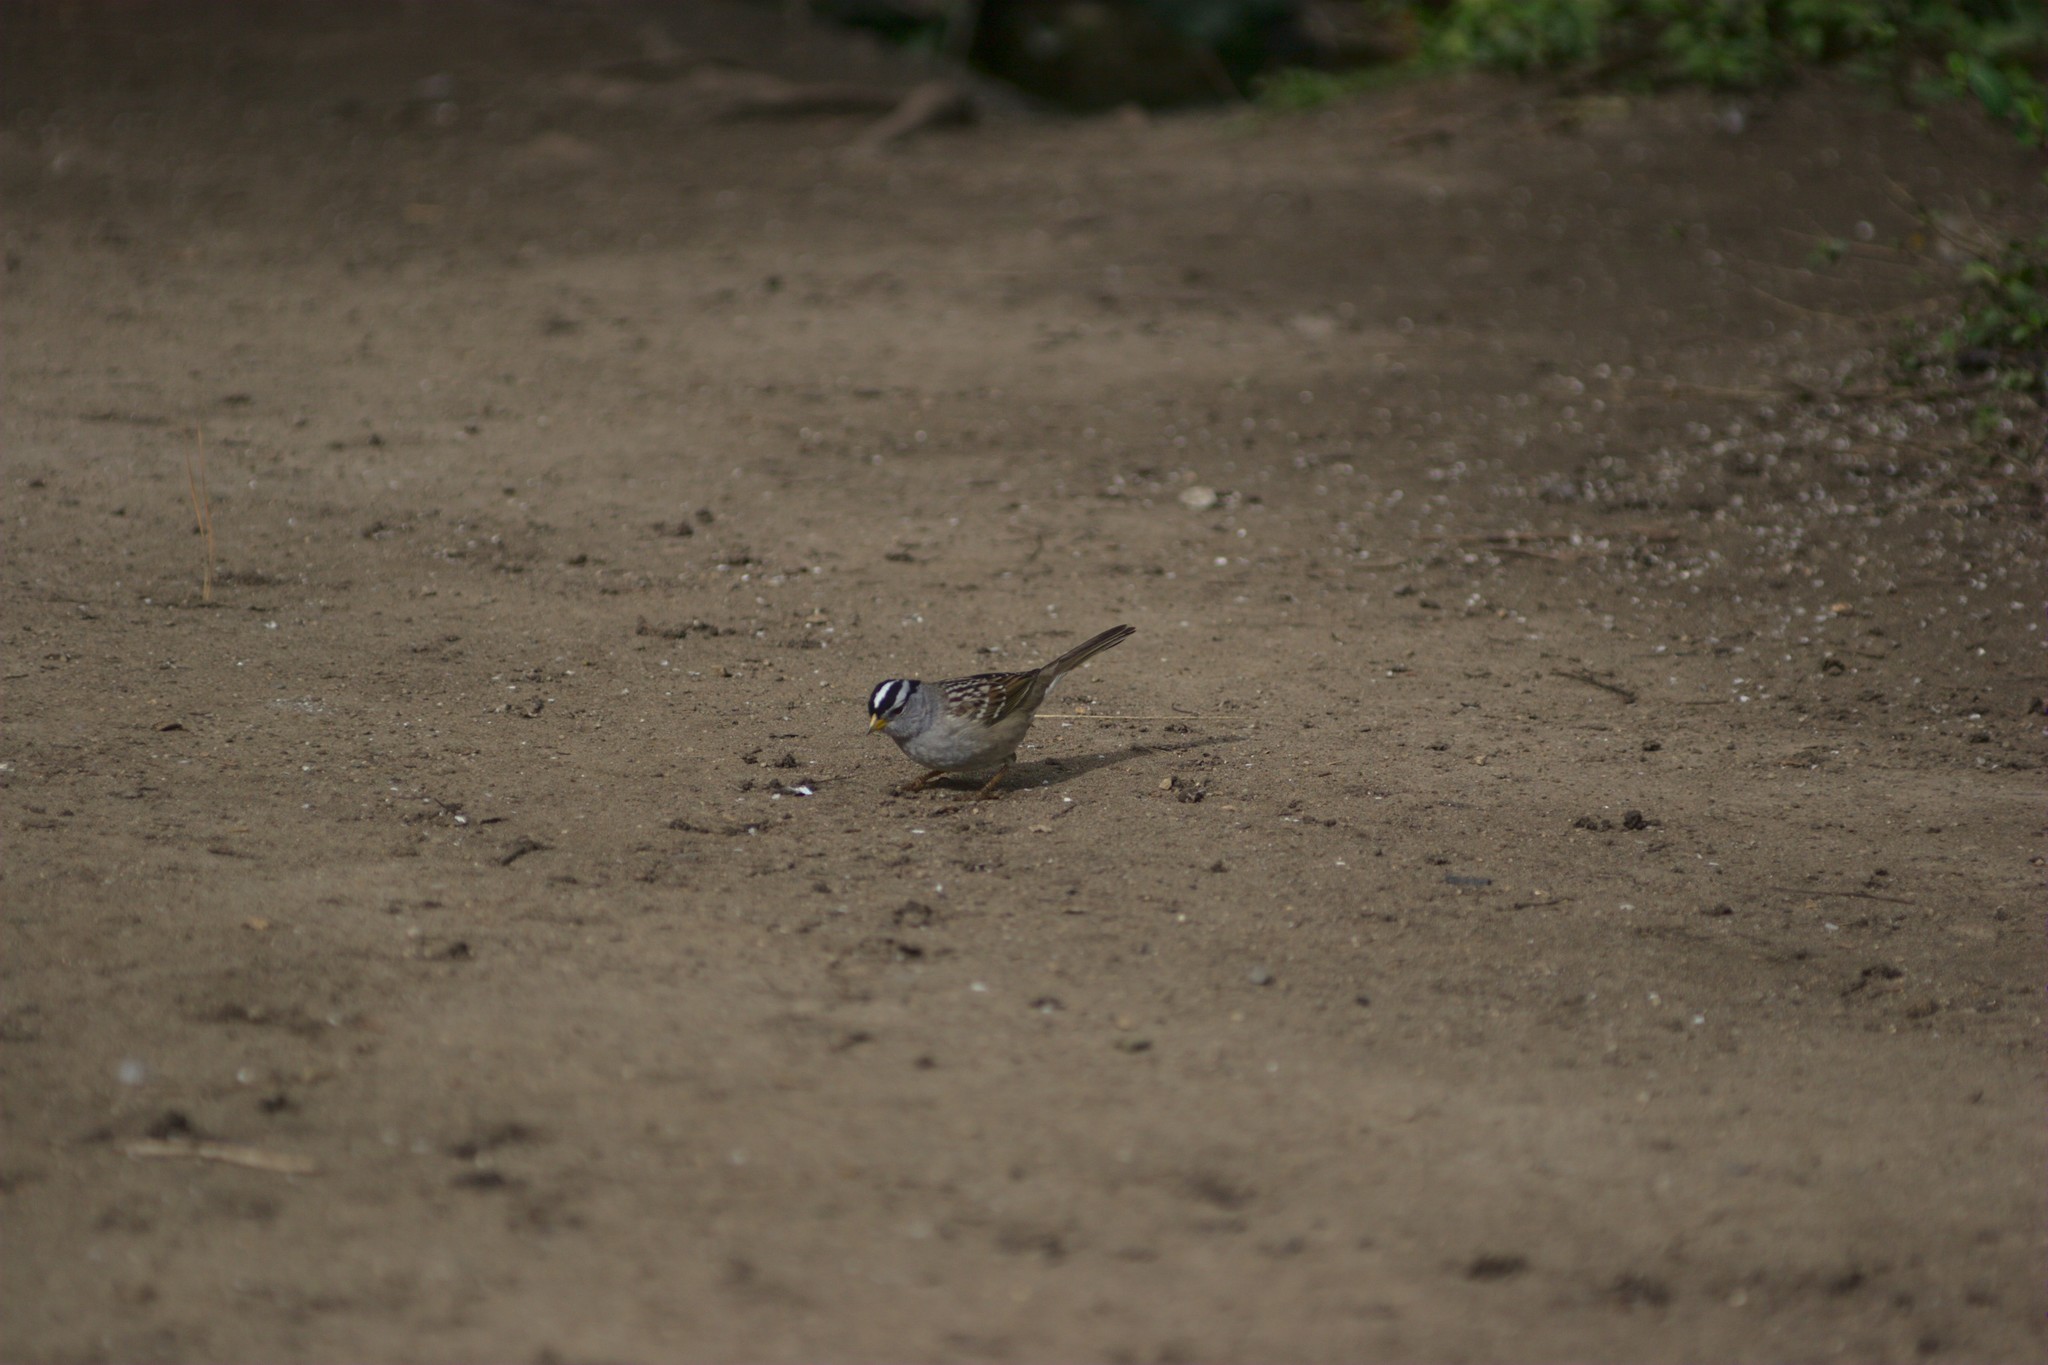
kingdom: Animalia
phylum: Chordata
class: Aves
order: Passeriformes
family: Passerellidae
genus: Zonotrichia
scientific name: Zonotrichia leucophrys
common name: White-crowned sparrow
